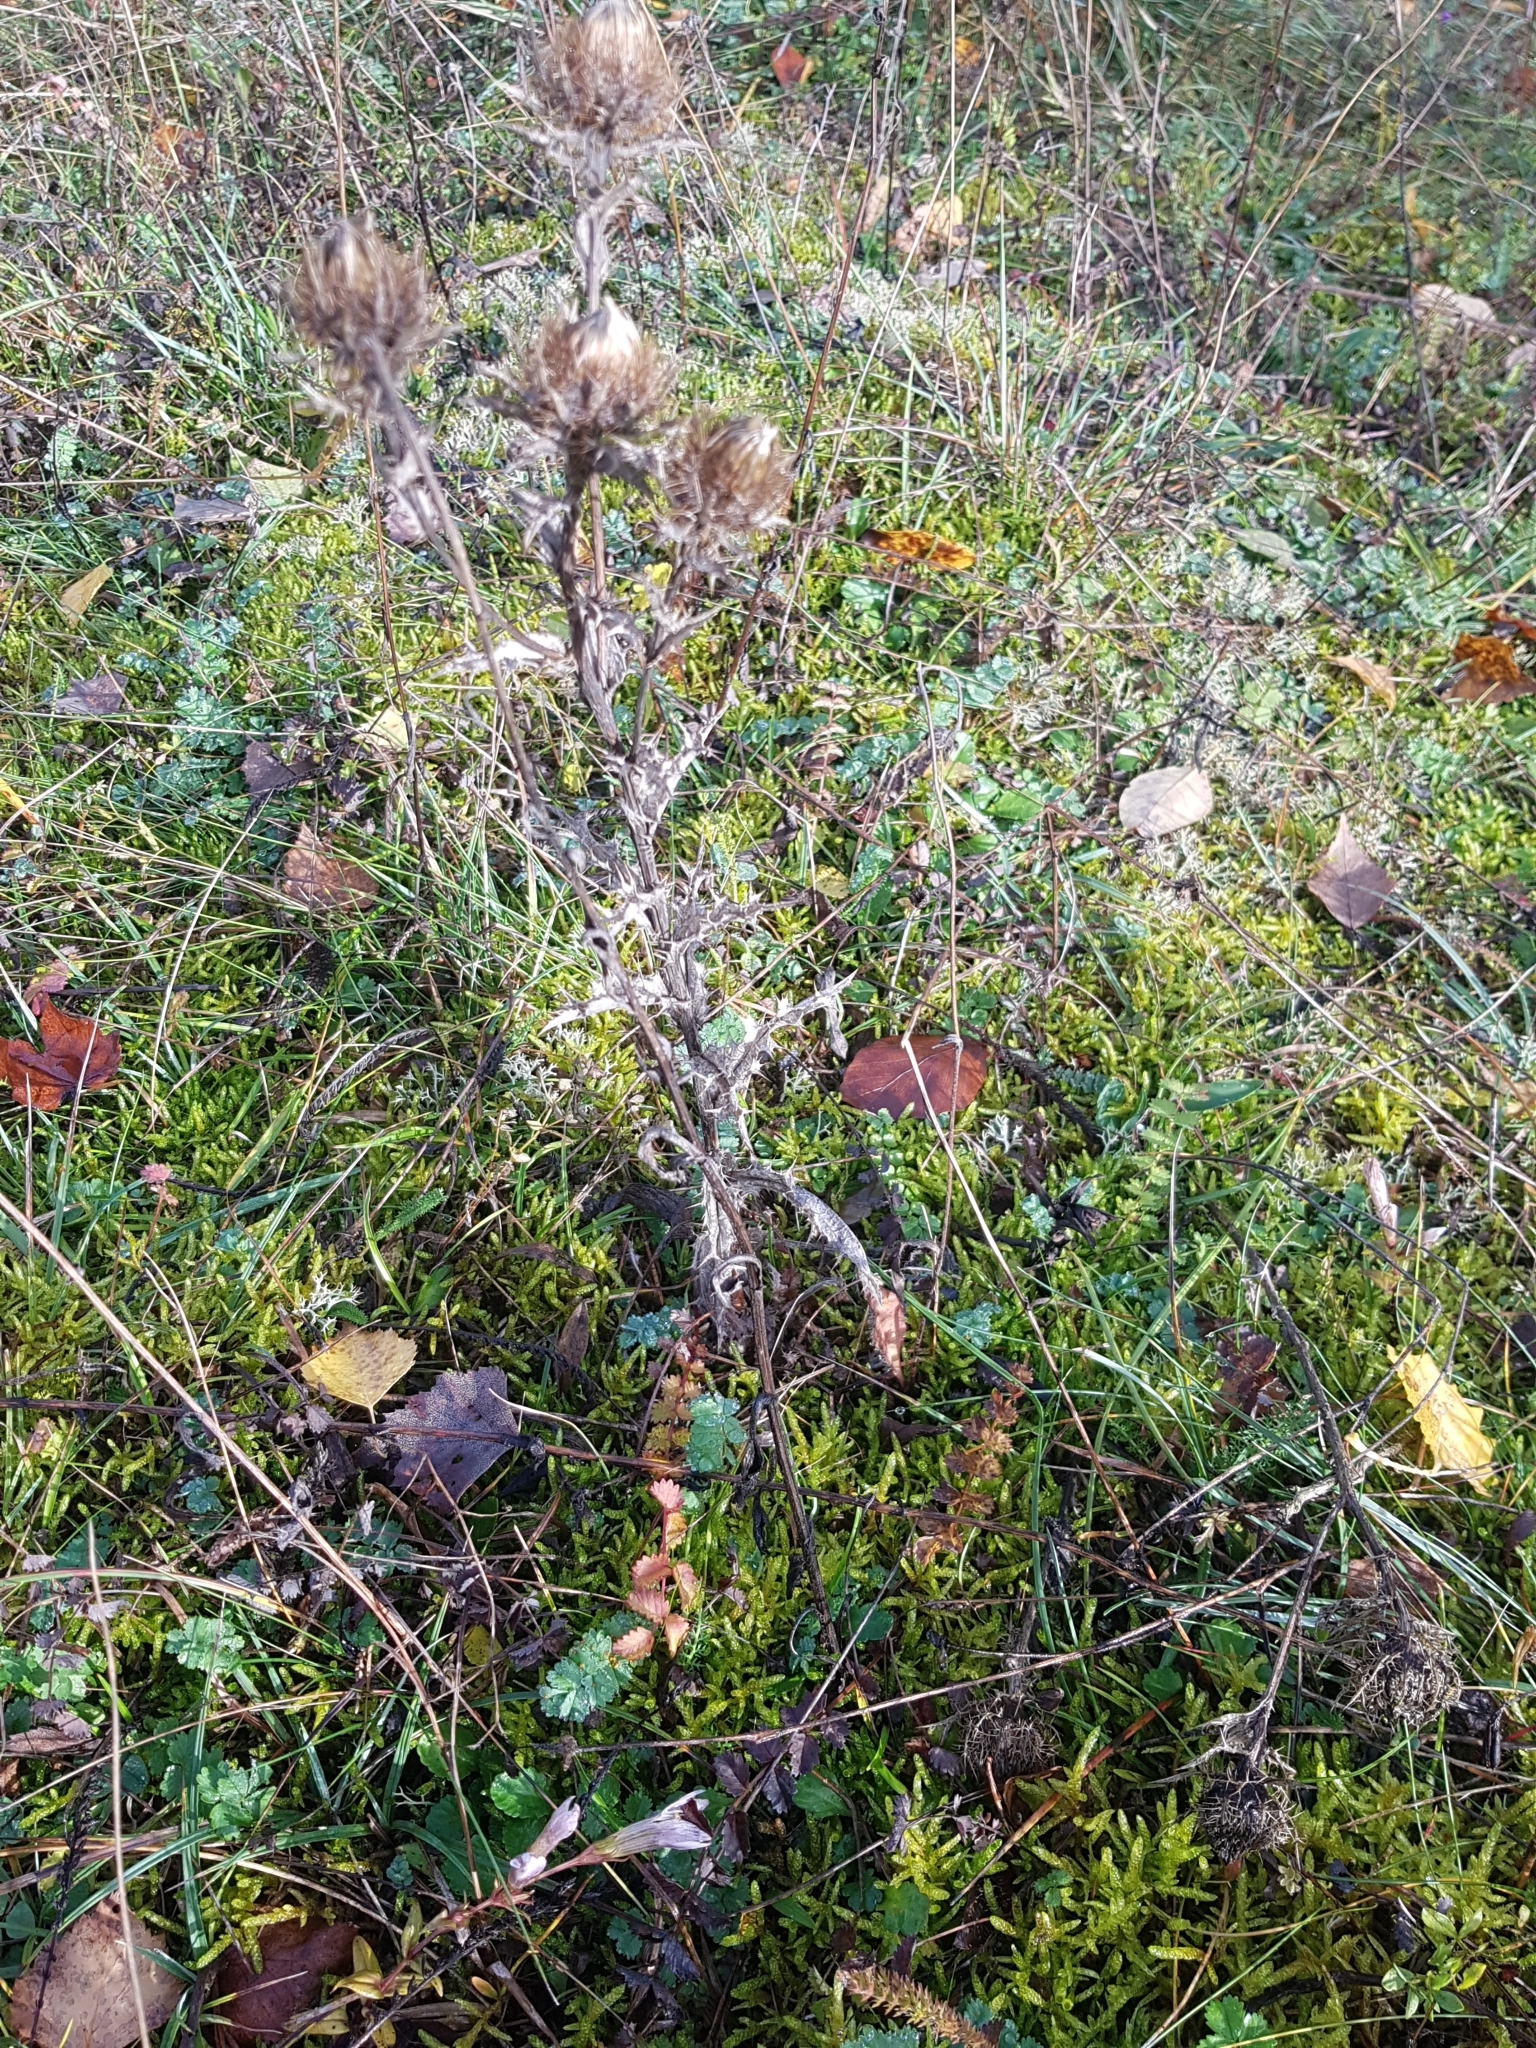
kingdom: Plantae
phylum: Tracheophyta
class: Magnoliopsida
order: Asterales
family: Asteraceae
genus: Carlina
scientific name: Carlina vulgaris
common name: Carline thistle
